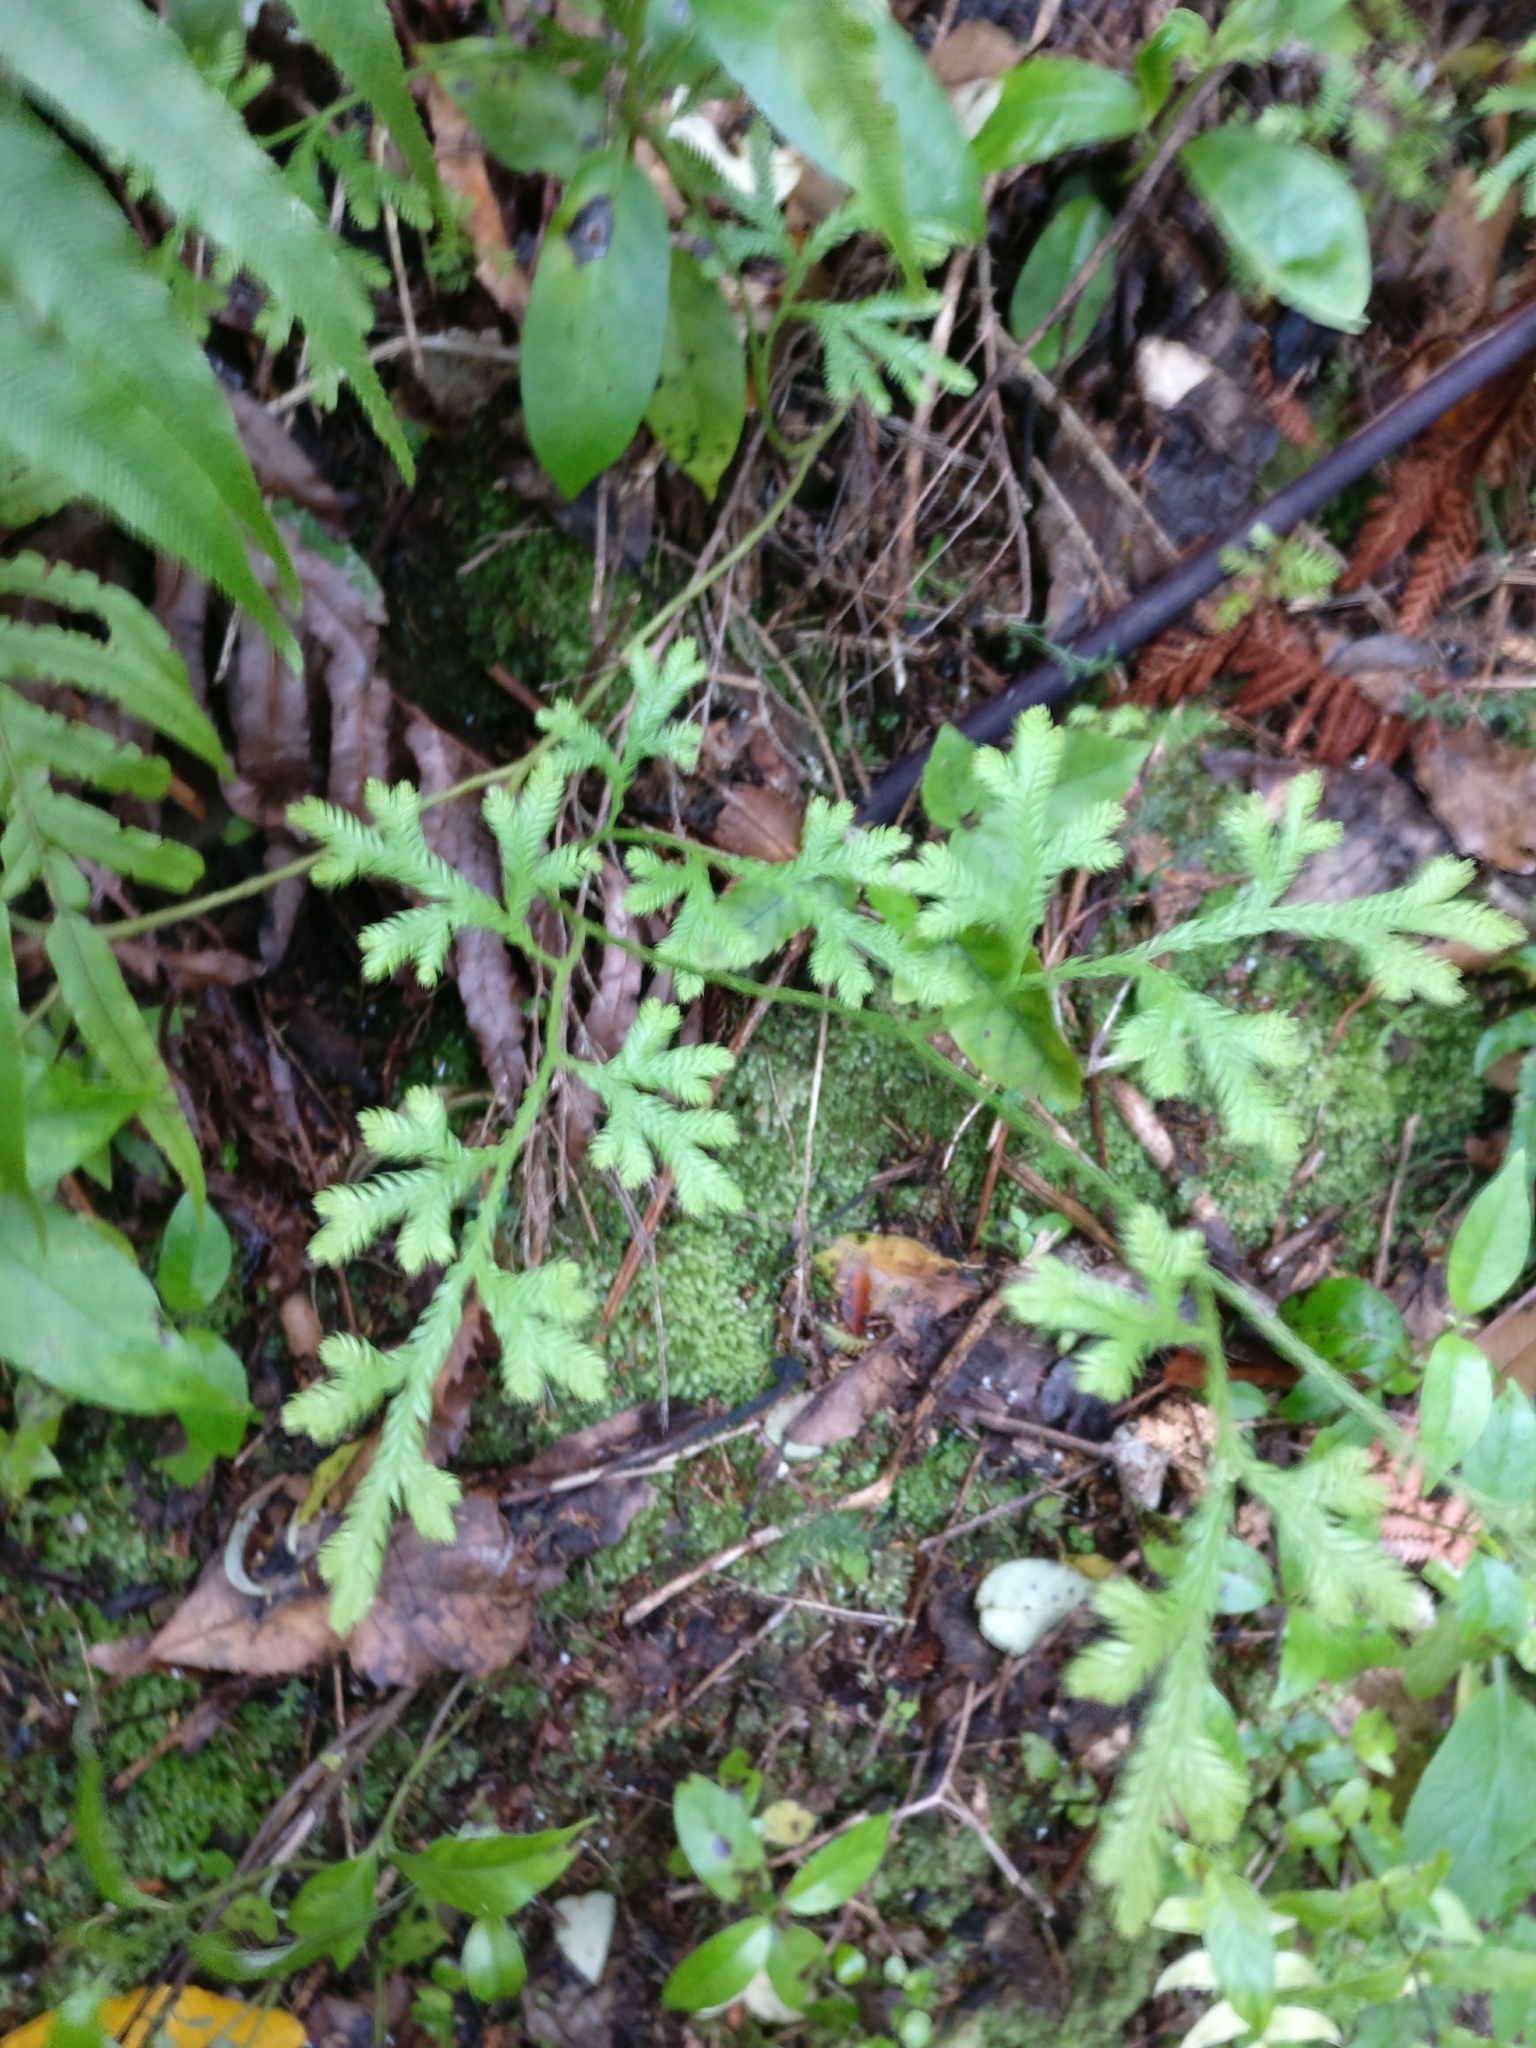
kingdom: Plantae
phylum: Tracheophyta
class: Lycopodiopsida
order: Lycopodiales
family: Lycopodiaceae
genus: Lycopodium
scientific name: Lycopodium volubile
